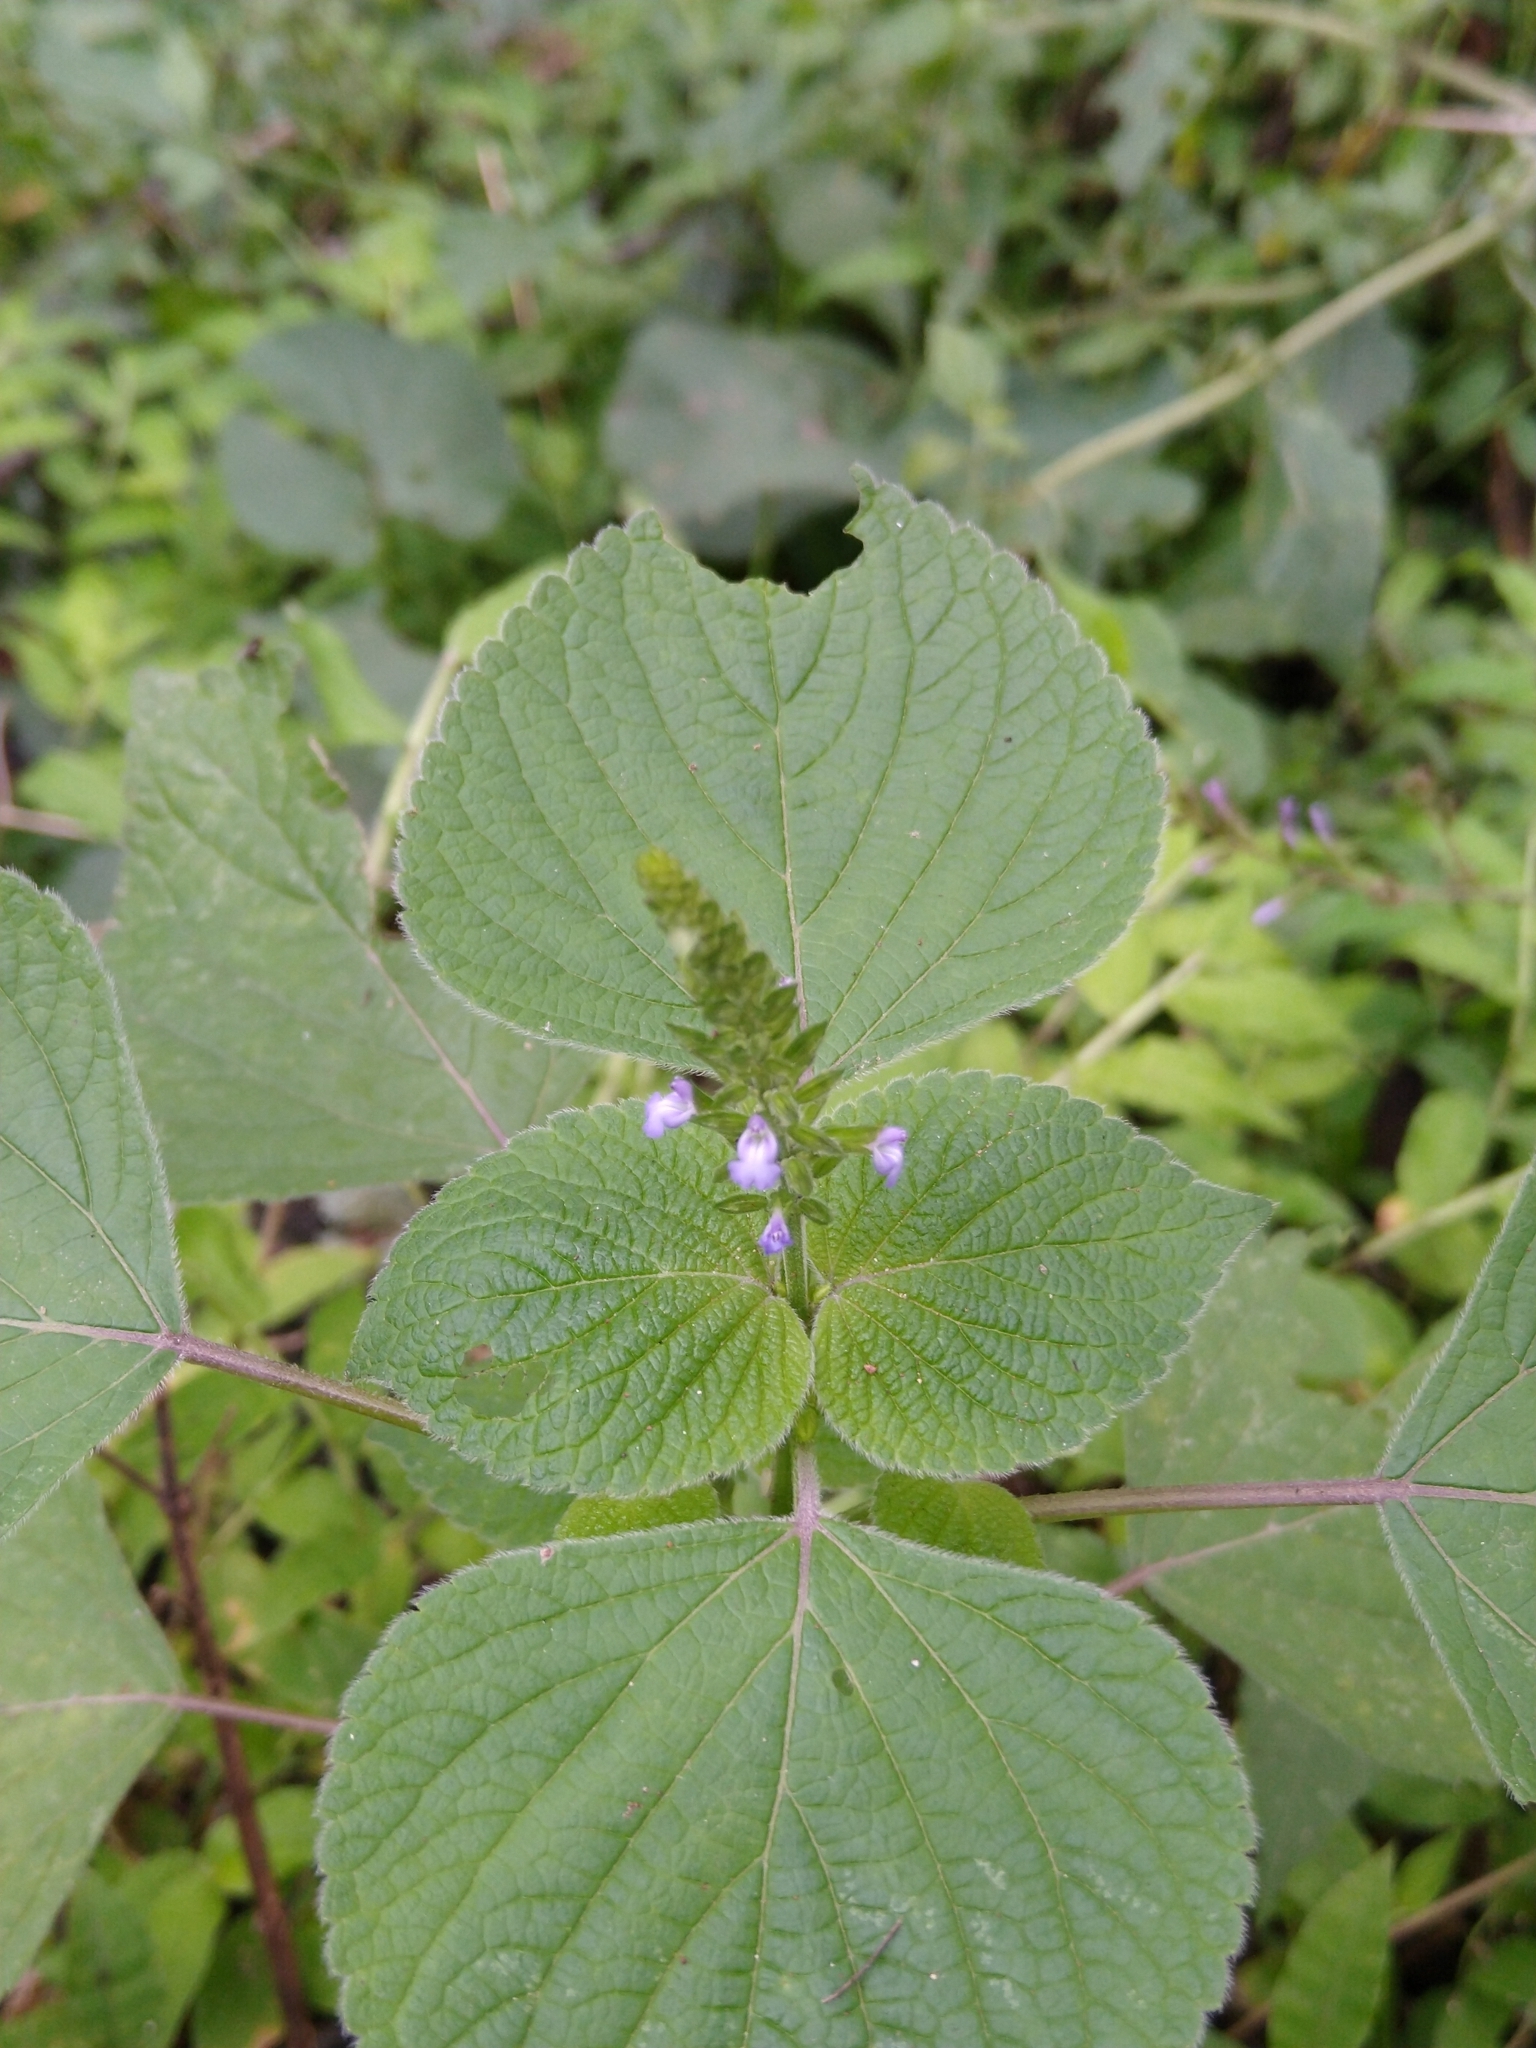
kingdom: Plantae
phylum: Tracheophyta
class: Magnoliopsida
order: Lamiales
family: Lamiaceae
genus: Salvia
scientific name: Salvia tiliifolia
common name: Lindenleaf sage
